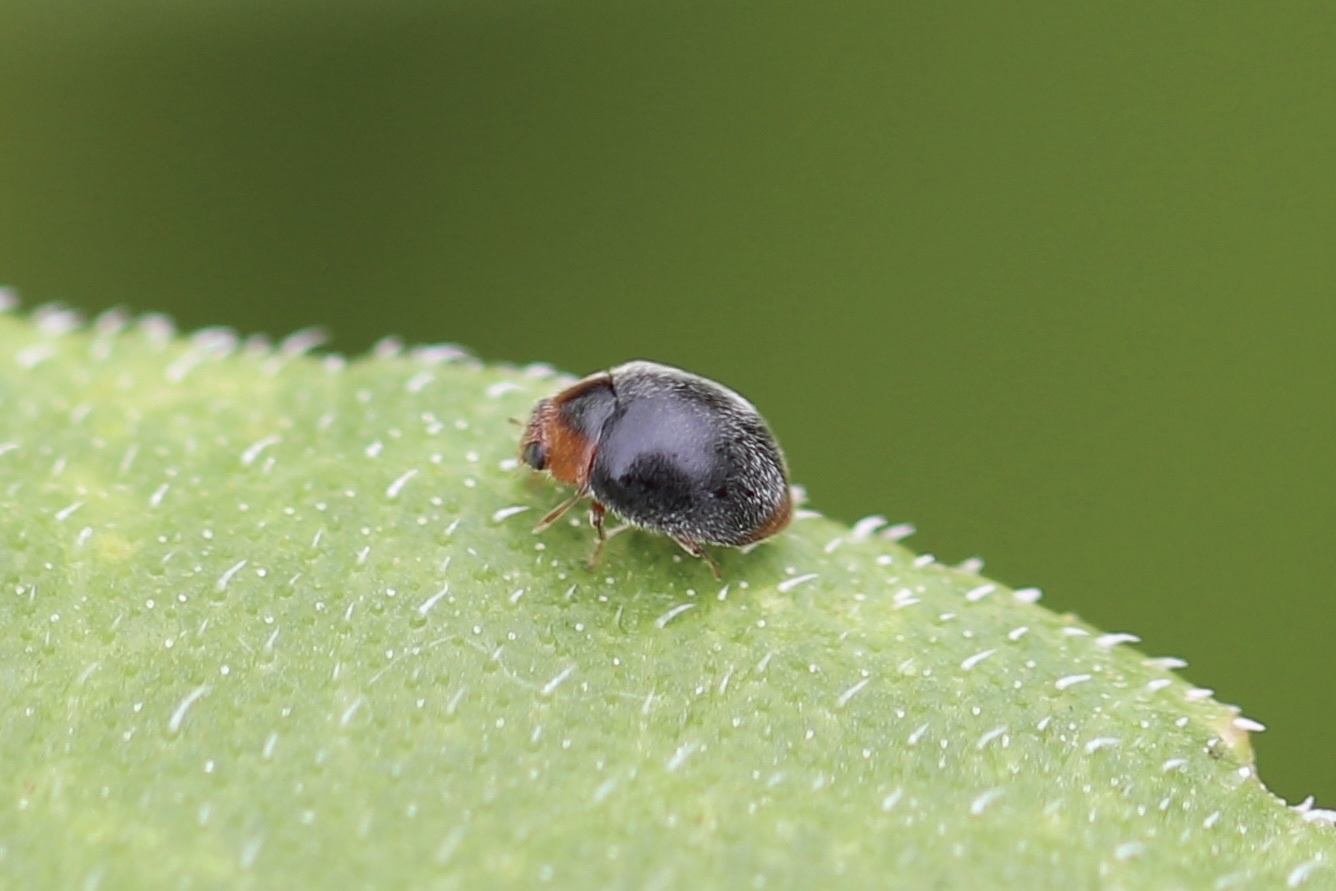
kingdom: Animalia
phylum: Arthropoda
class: Insecta
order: Coleoptera
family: Coccinellidae
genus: Scymnus
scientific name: Scymnus louisianae
